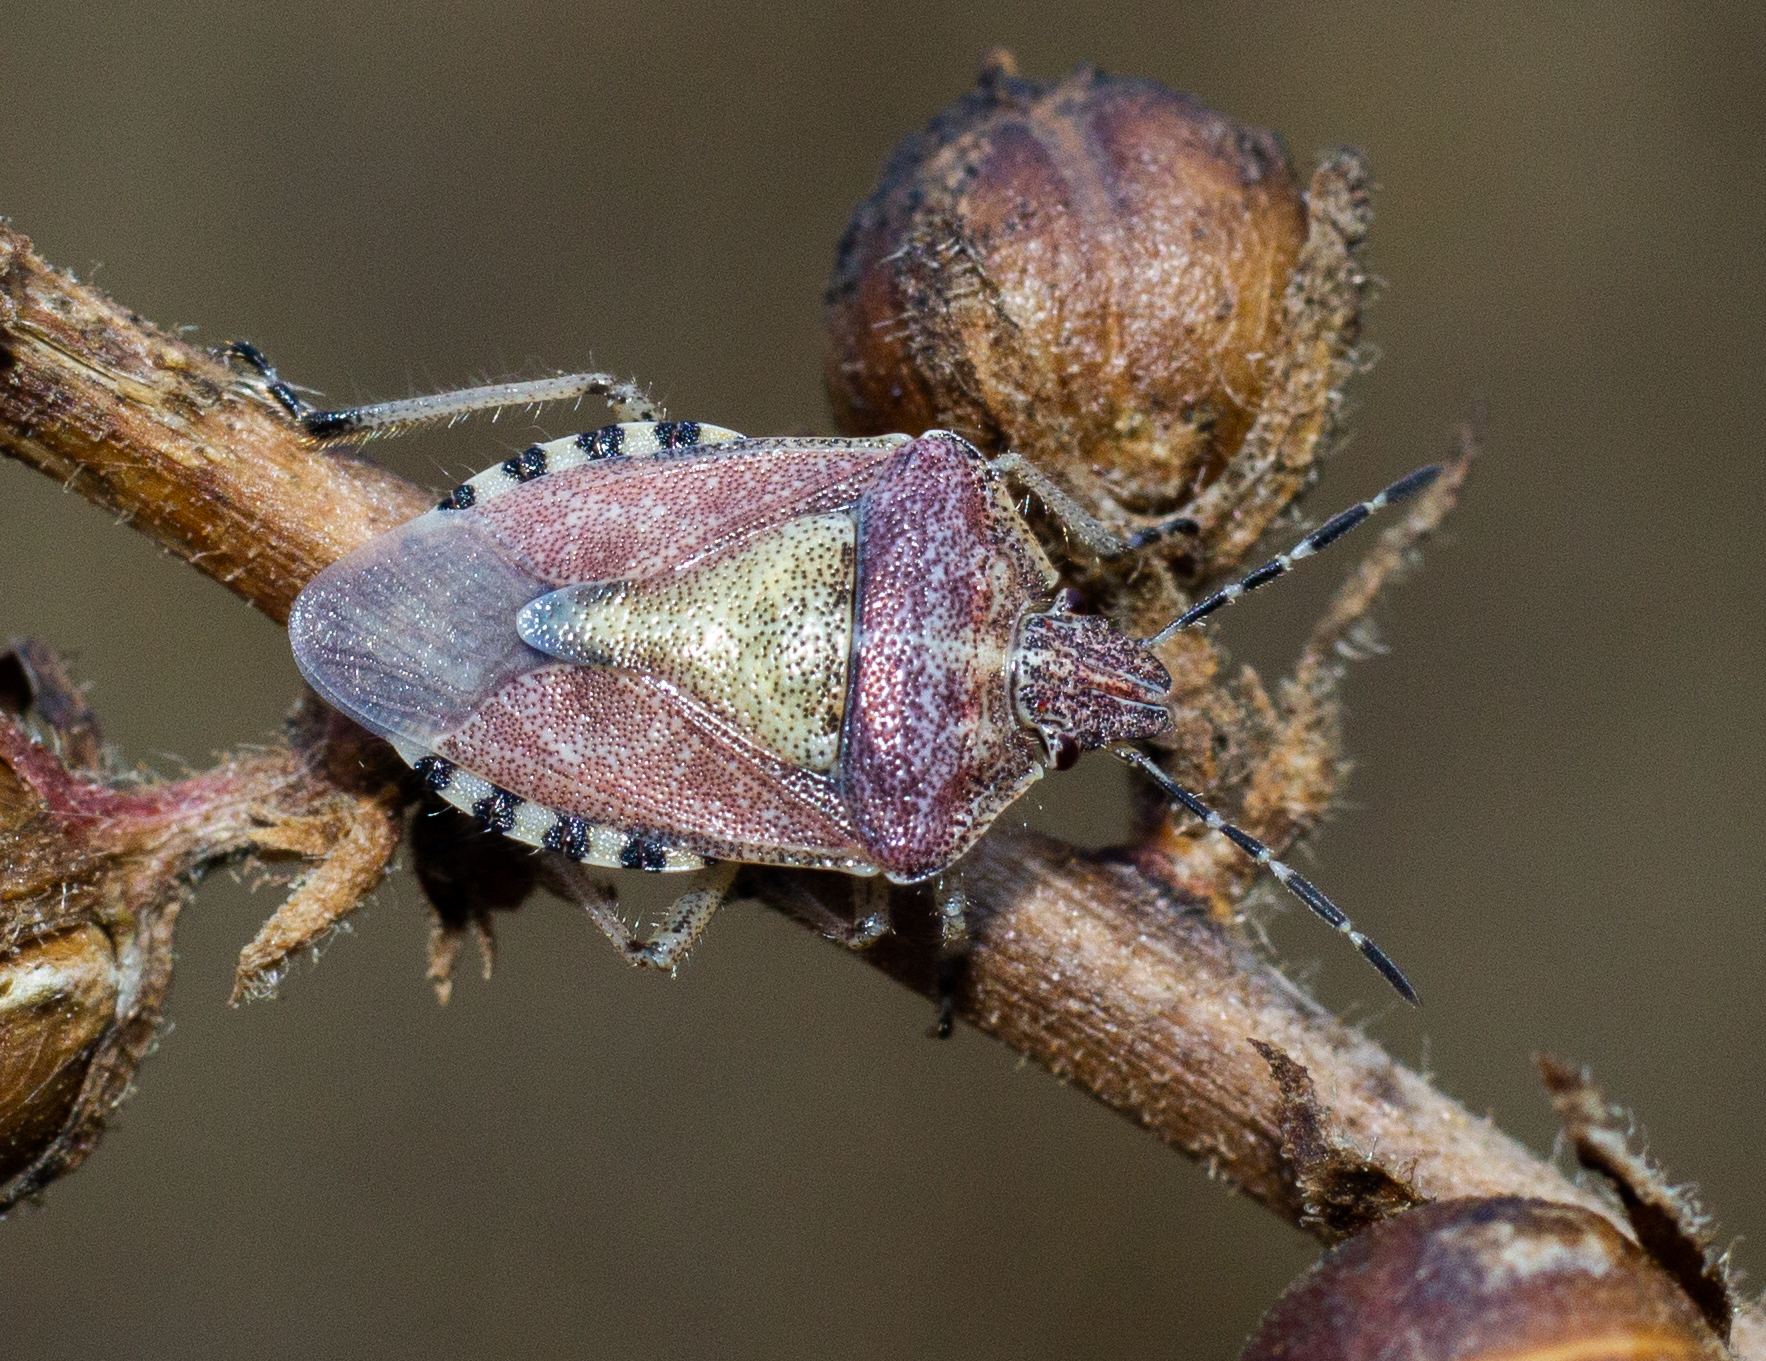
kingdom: Animalia
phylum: Arthropoda
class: Insecta
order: Hemiptera
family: Pentatomidae
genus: Dolycoris
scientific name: Dolycoris baccarum
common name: Sloe bug
